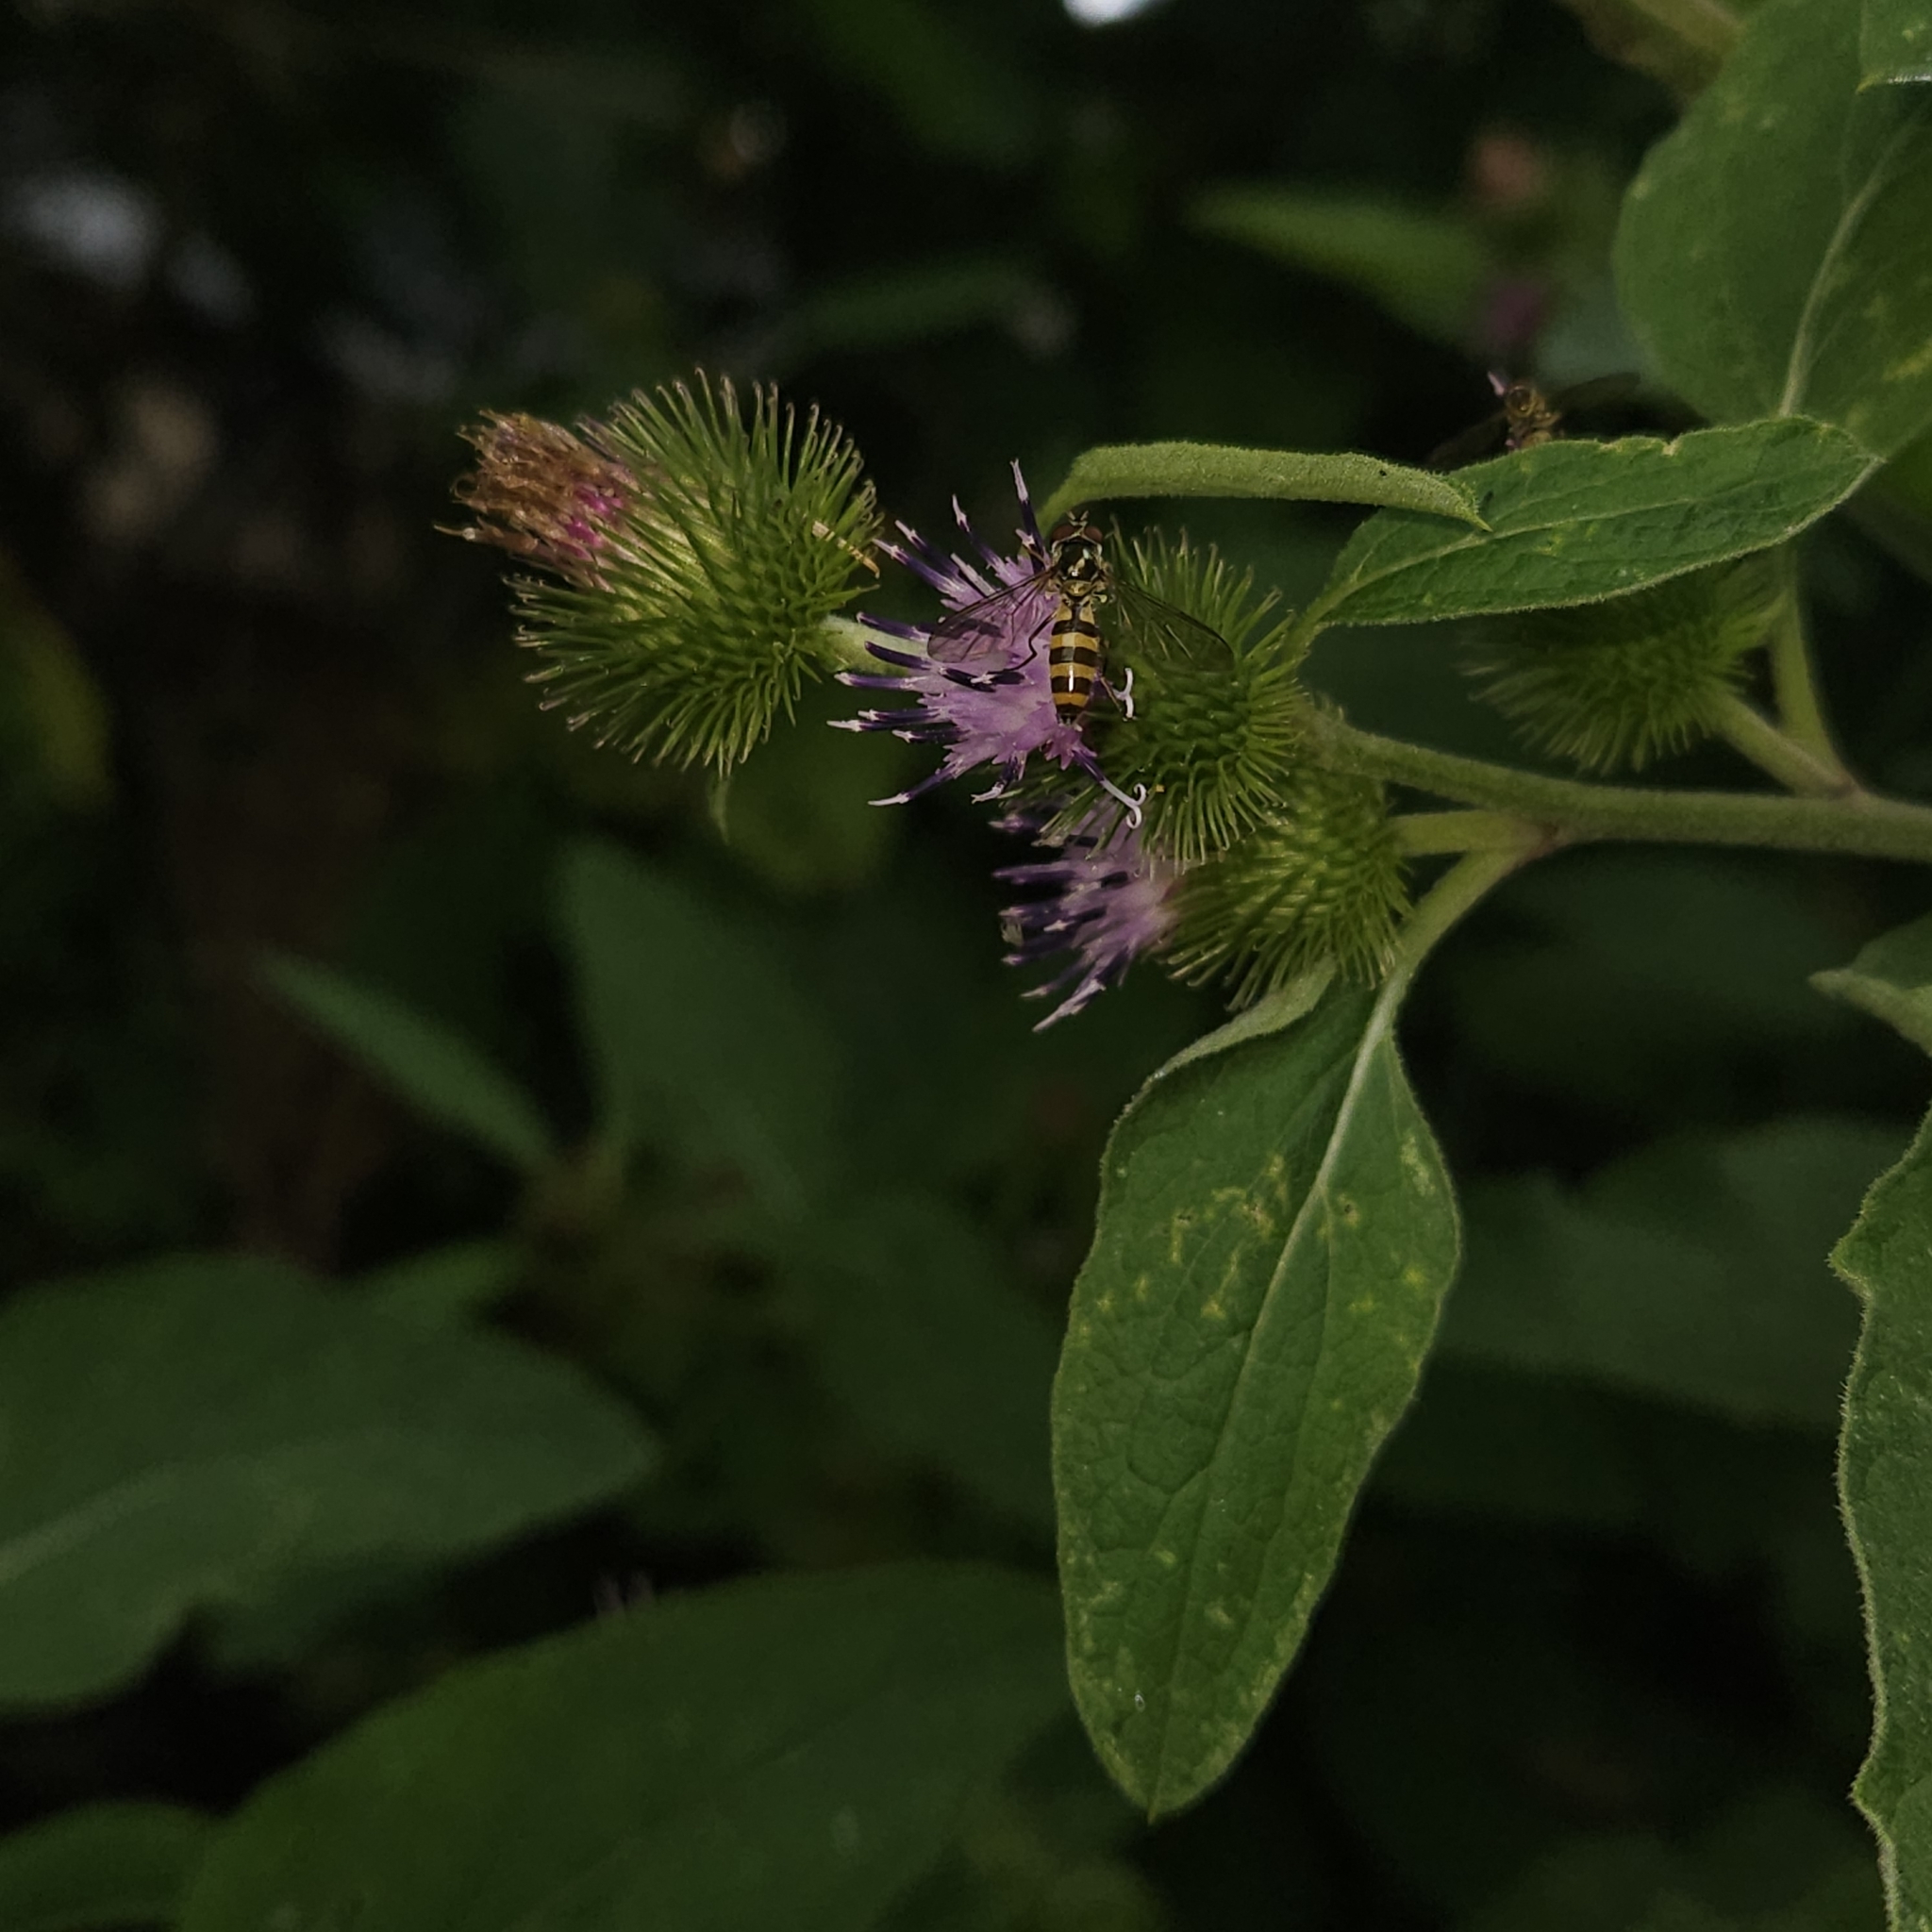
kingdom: Animalia
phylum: Arthropoda
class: Insecta
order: Diptera
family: Syrphidae
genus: Meliscaeva
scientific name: Meliscaeva cinctella
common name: American thintail fly
